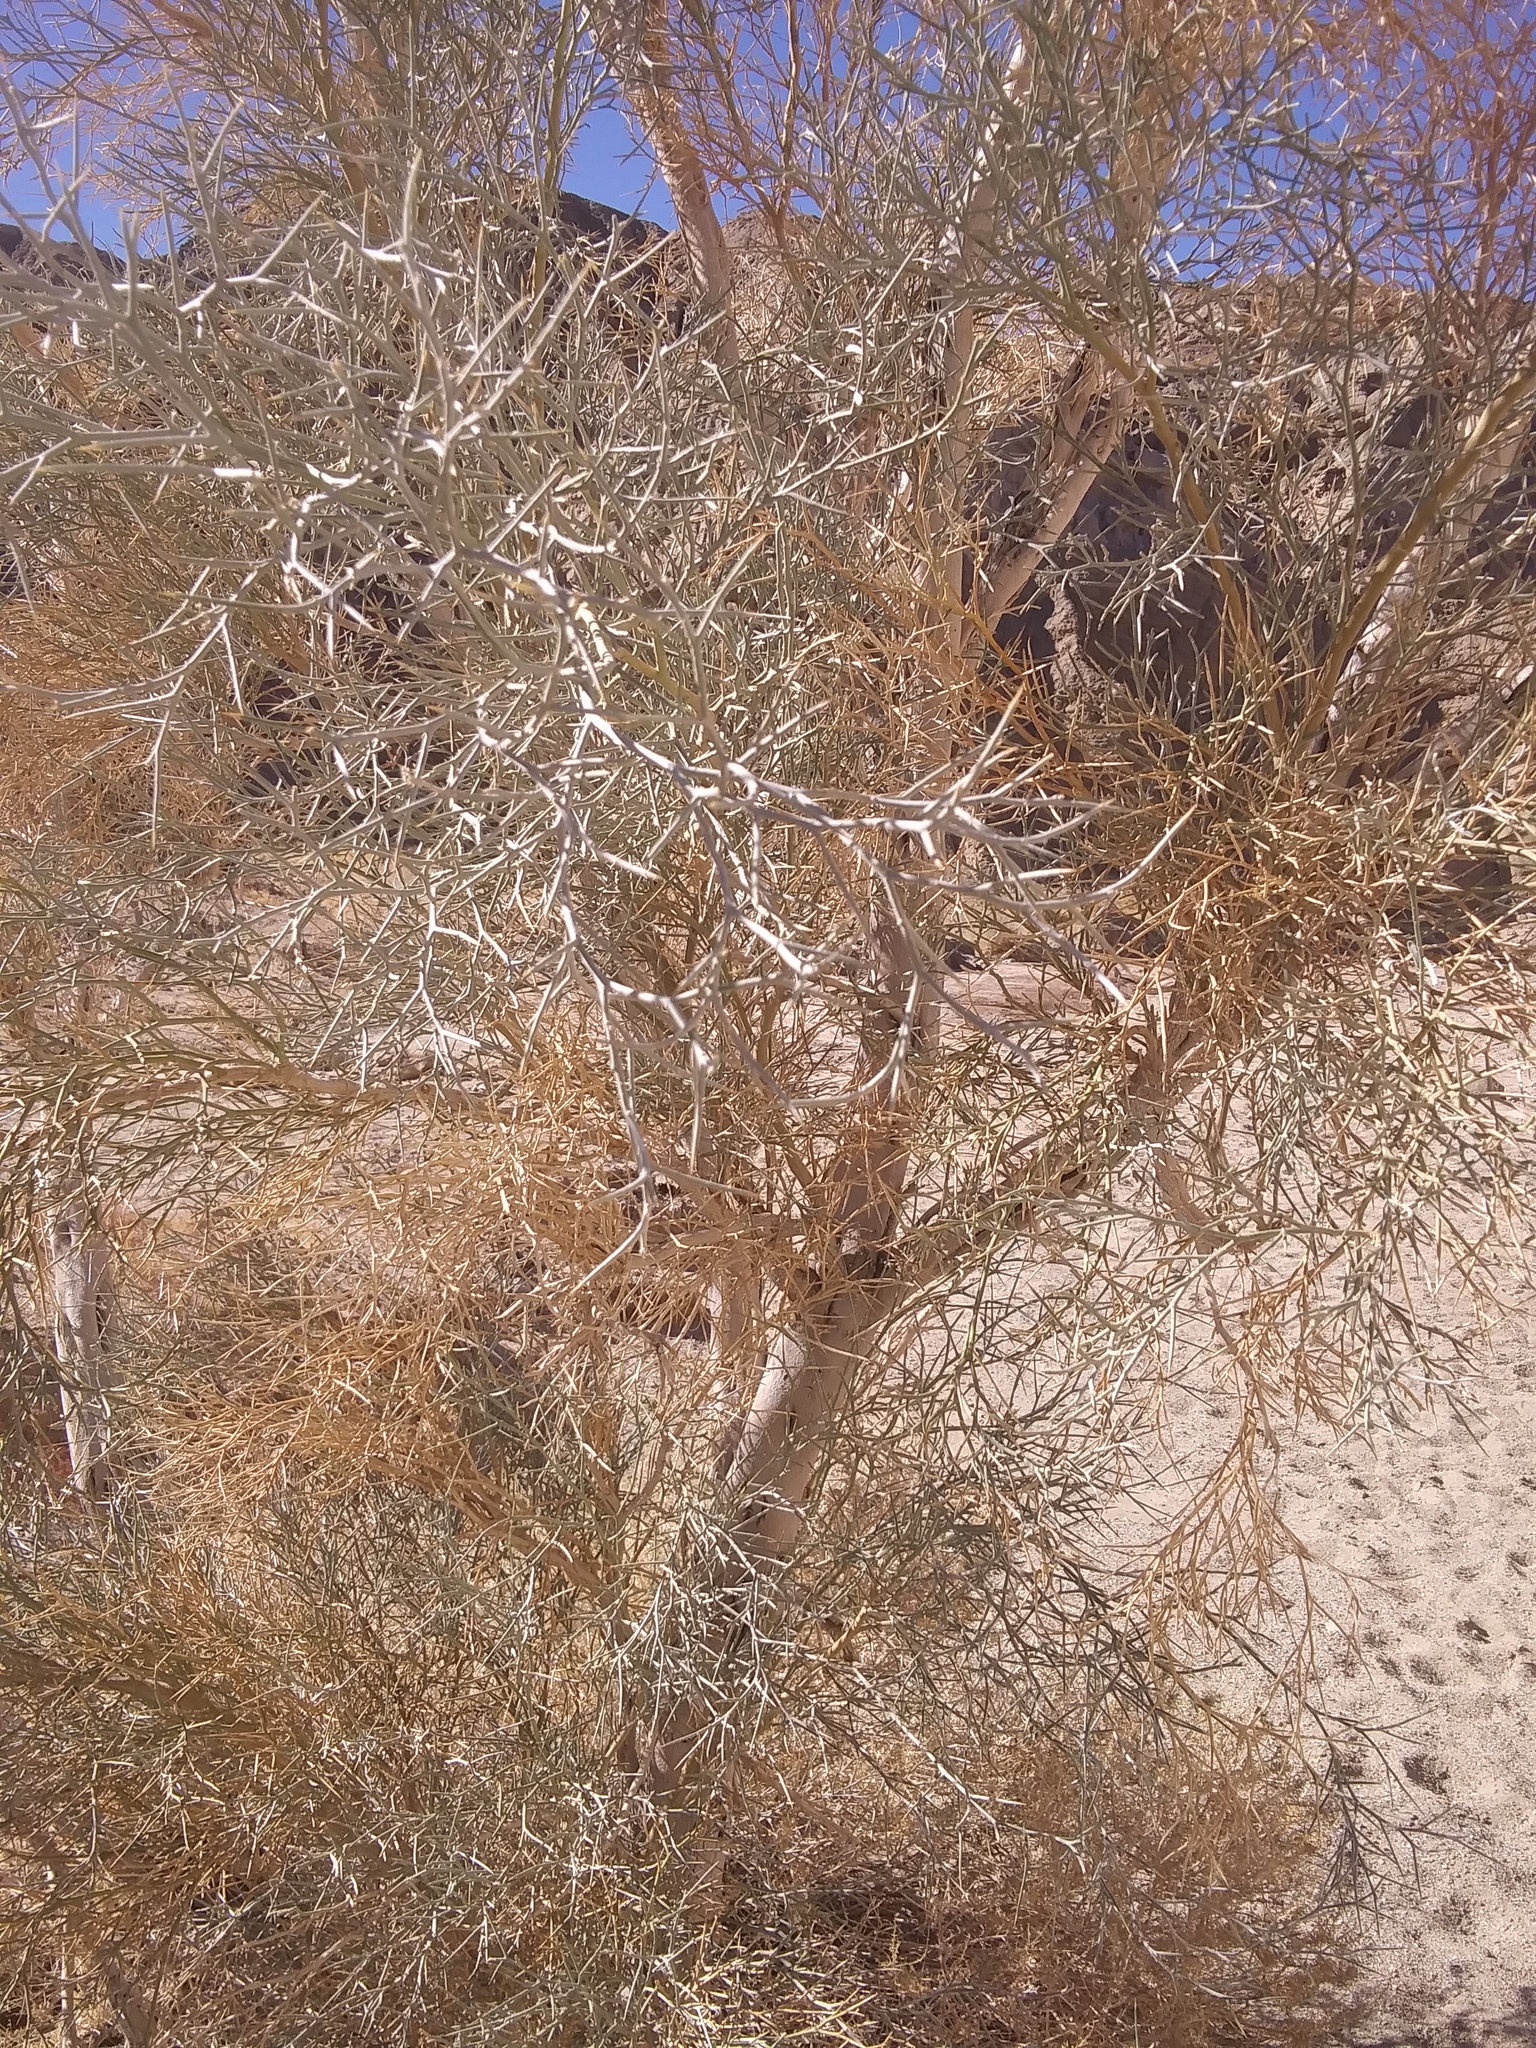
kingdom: Plantae
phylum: Tracheophyta
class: Magnoliopsida
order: Fabales
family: Fabaceae
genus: Psorothamnus
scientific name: Psorothamnus spinosus
